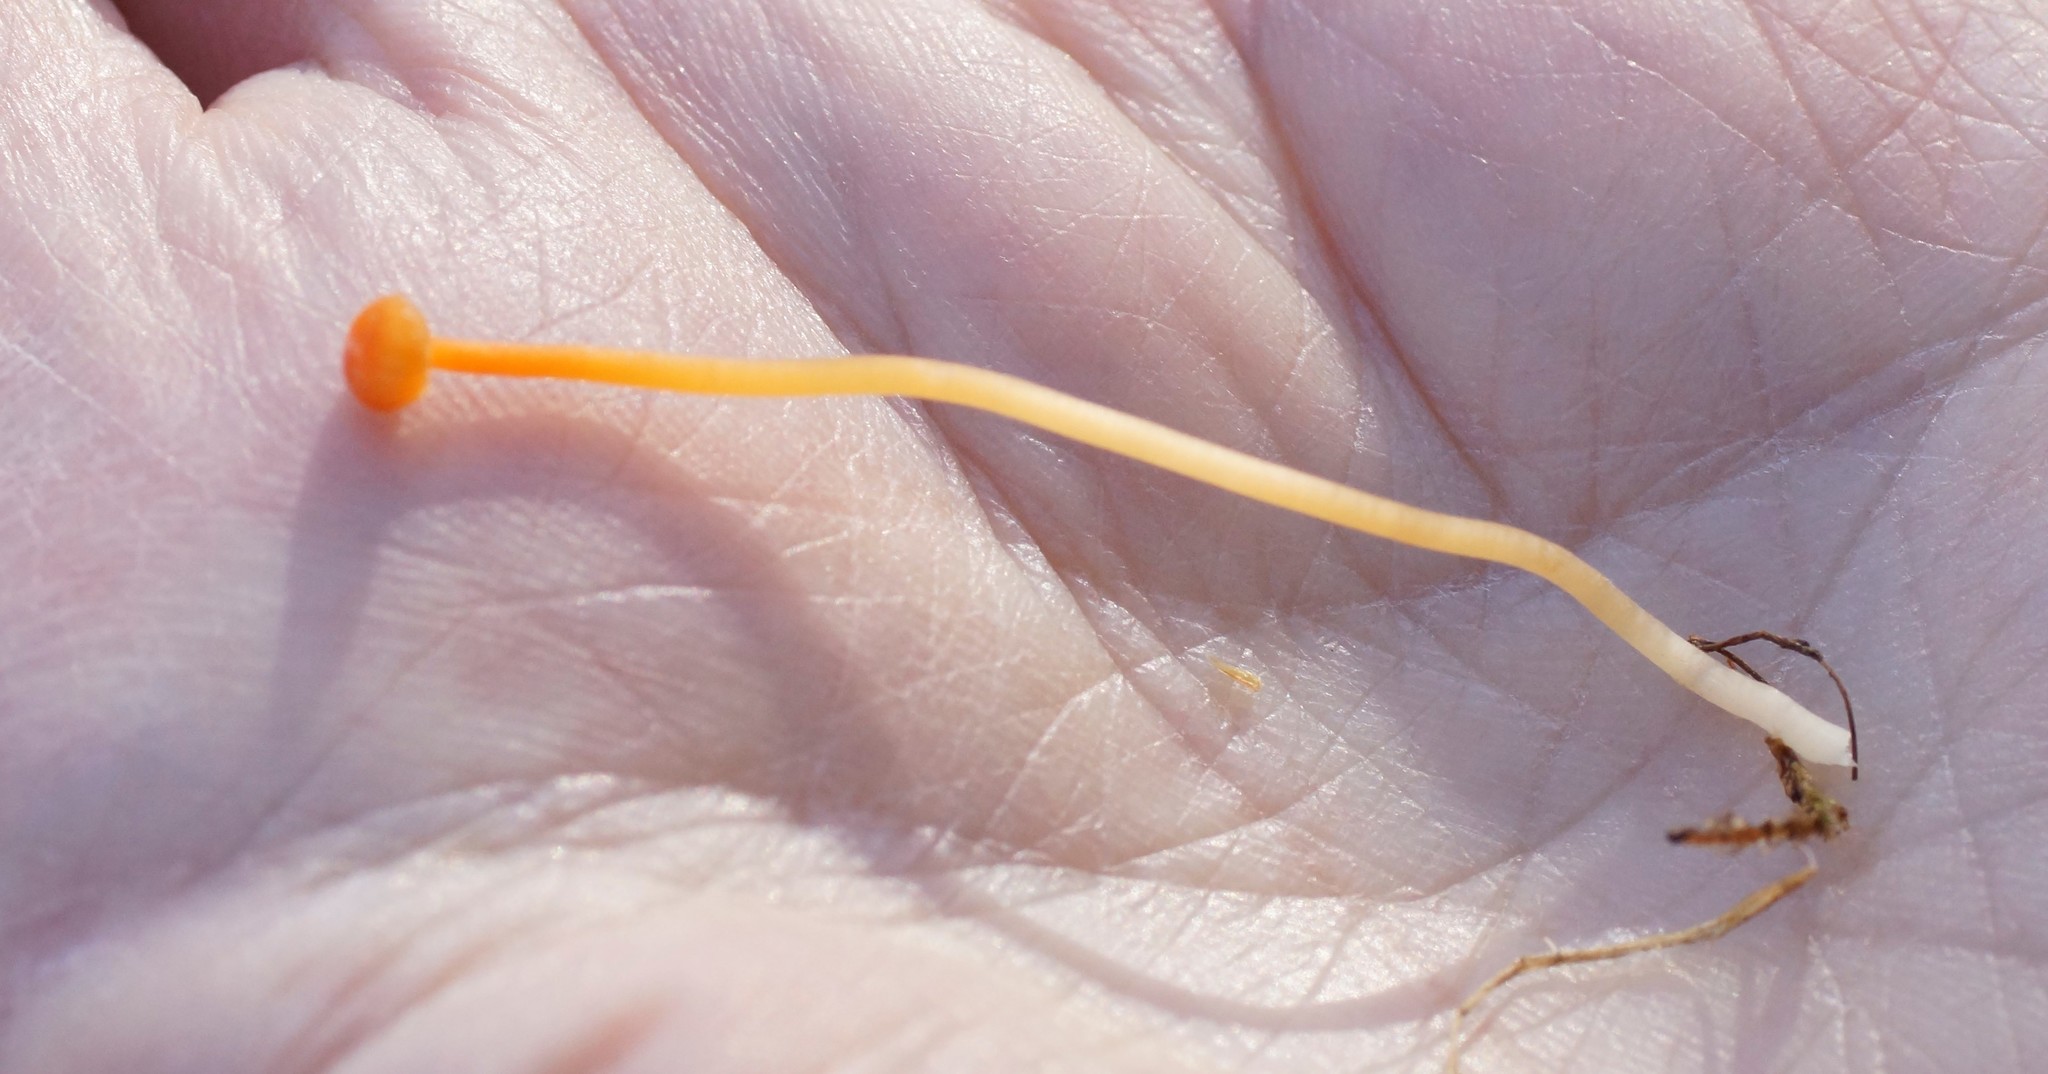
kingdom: Fungi
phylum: Basidiomycota
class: Agaricomycetes
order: Hymenochaetales
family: Rickenellaceae
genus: Rickenella
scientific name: Rickenella fibula
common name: Orange mosscap
